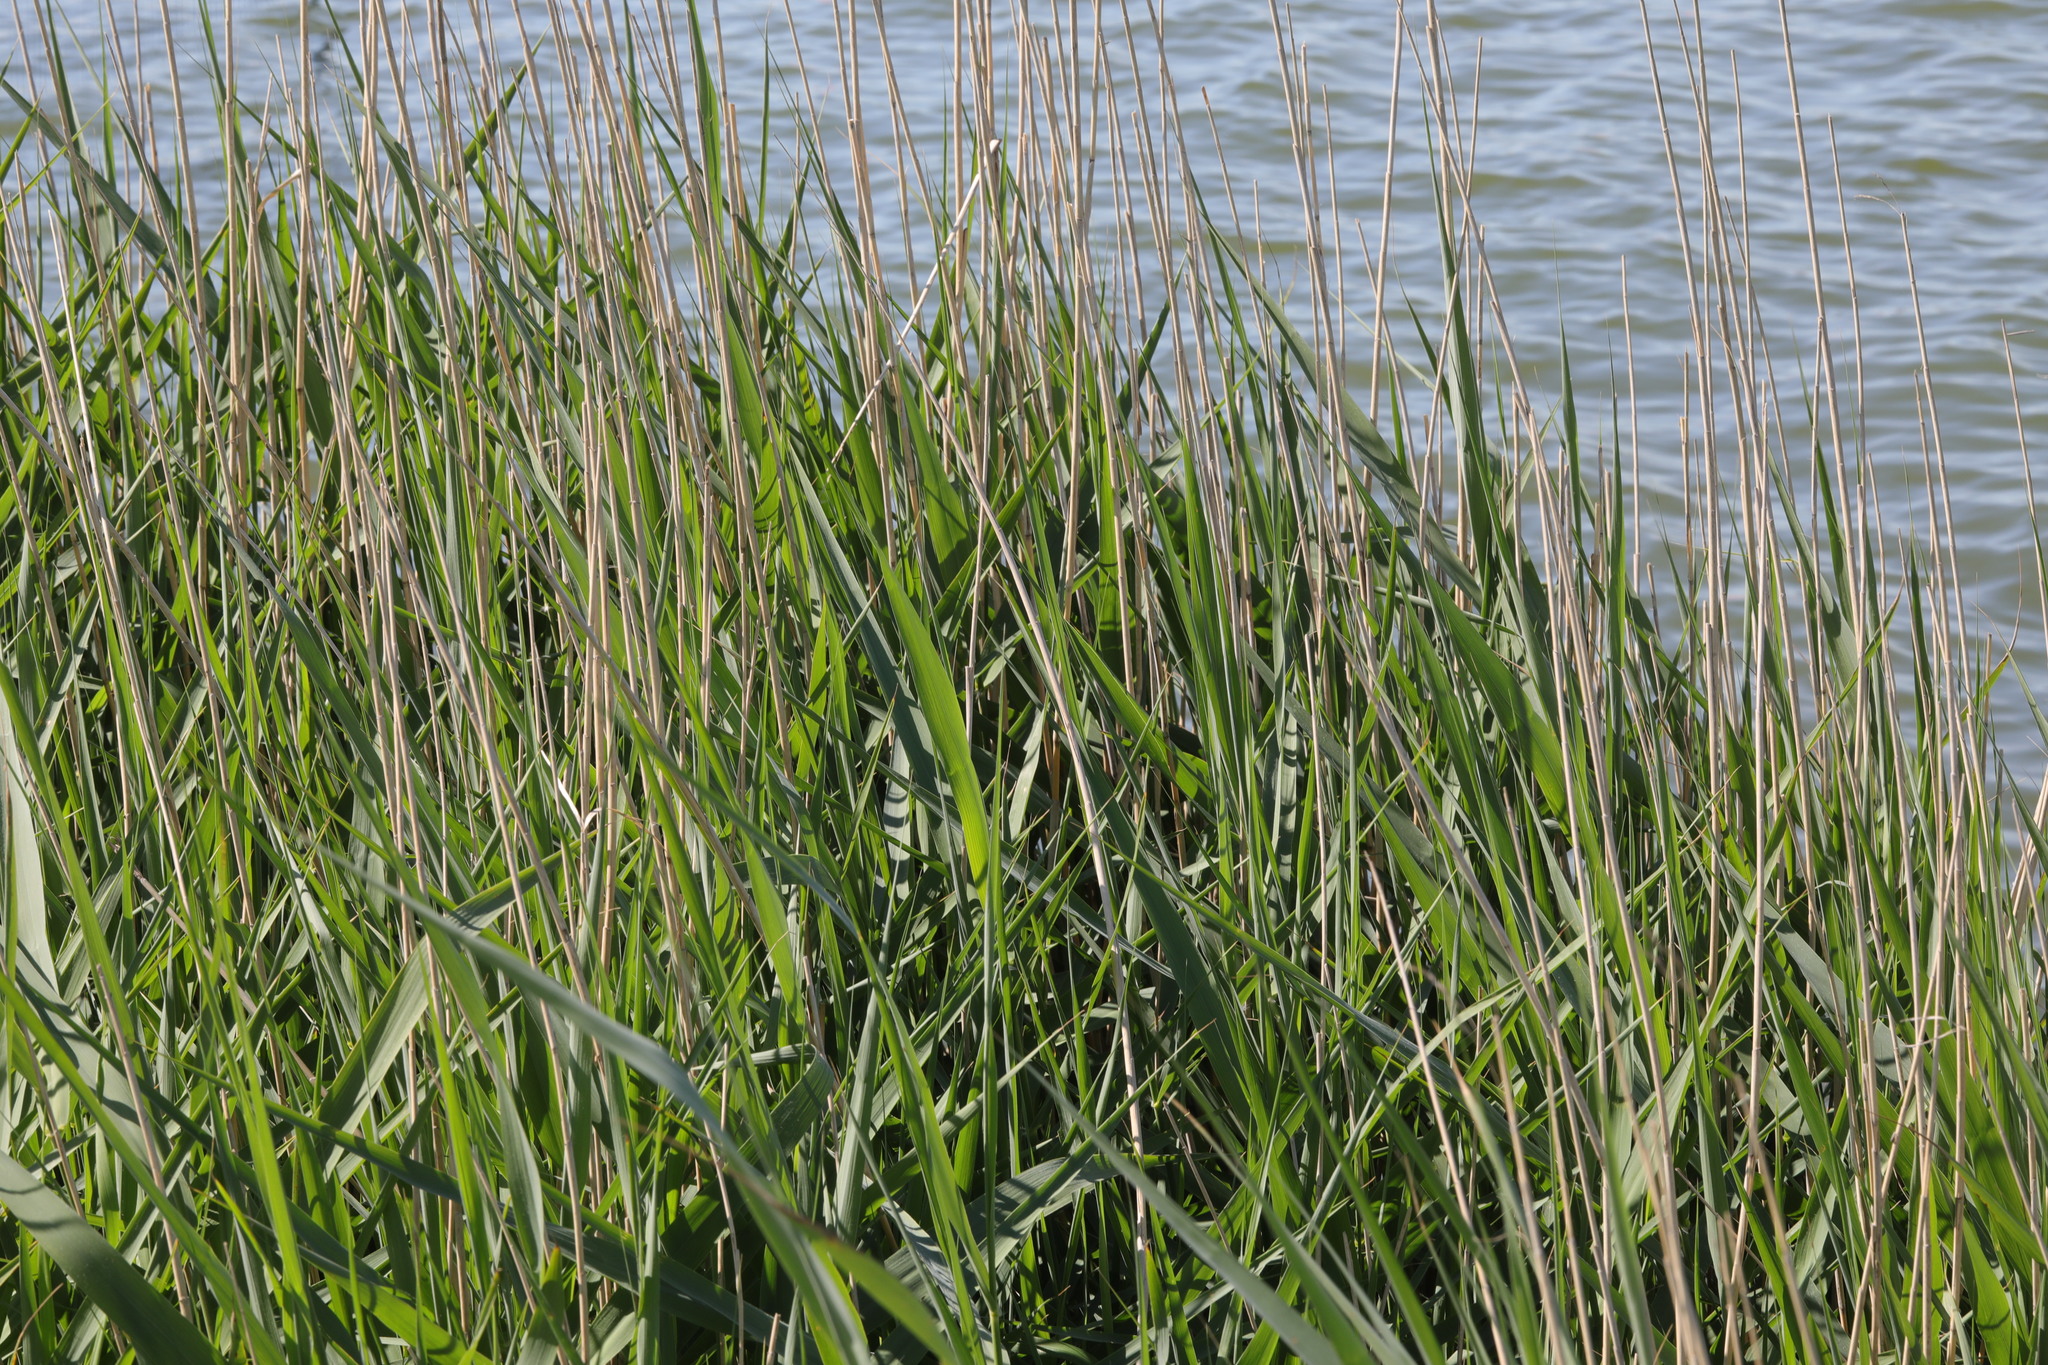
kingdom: Plantae
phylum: Tracheophyta
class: Liliopsida
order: Poales
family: Poaceae
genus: Phragmites
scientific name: Phragmites australis
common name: Common reed
